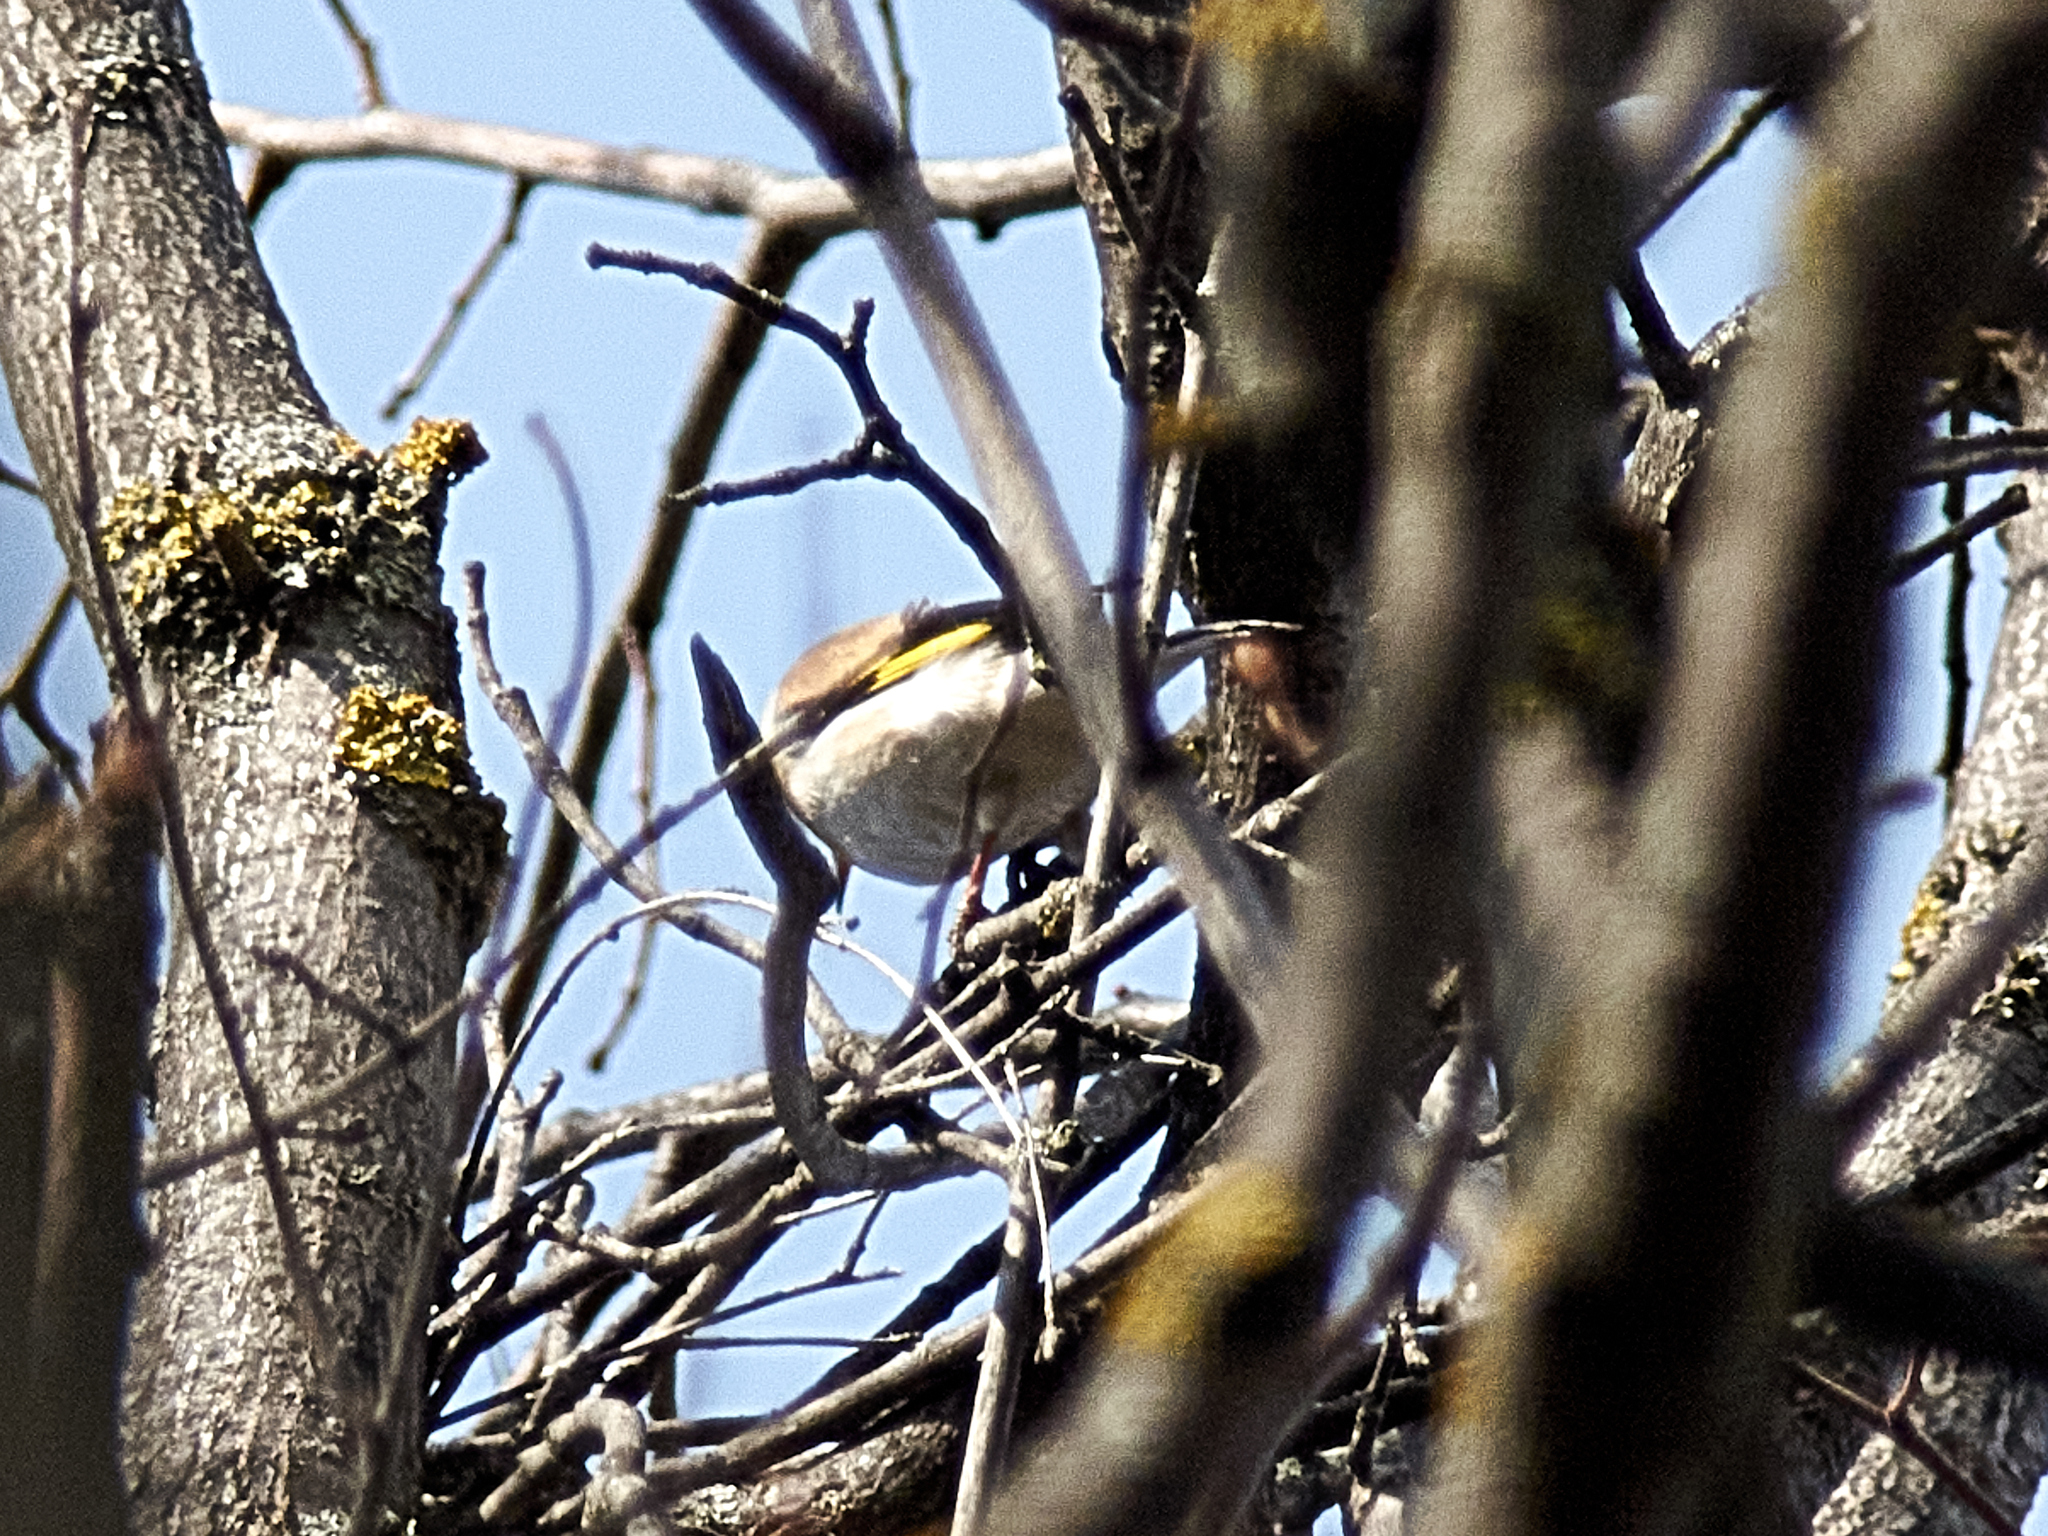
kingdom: Animalia
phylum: Chordata
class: Aves
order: Passeriformes
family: Fringillidae
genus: Carduelis
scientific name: Carduelis carduelis
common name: European goldfinch
